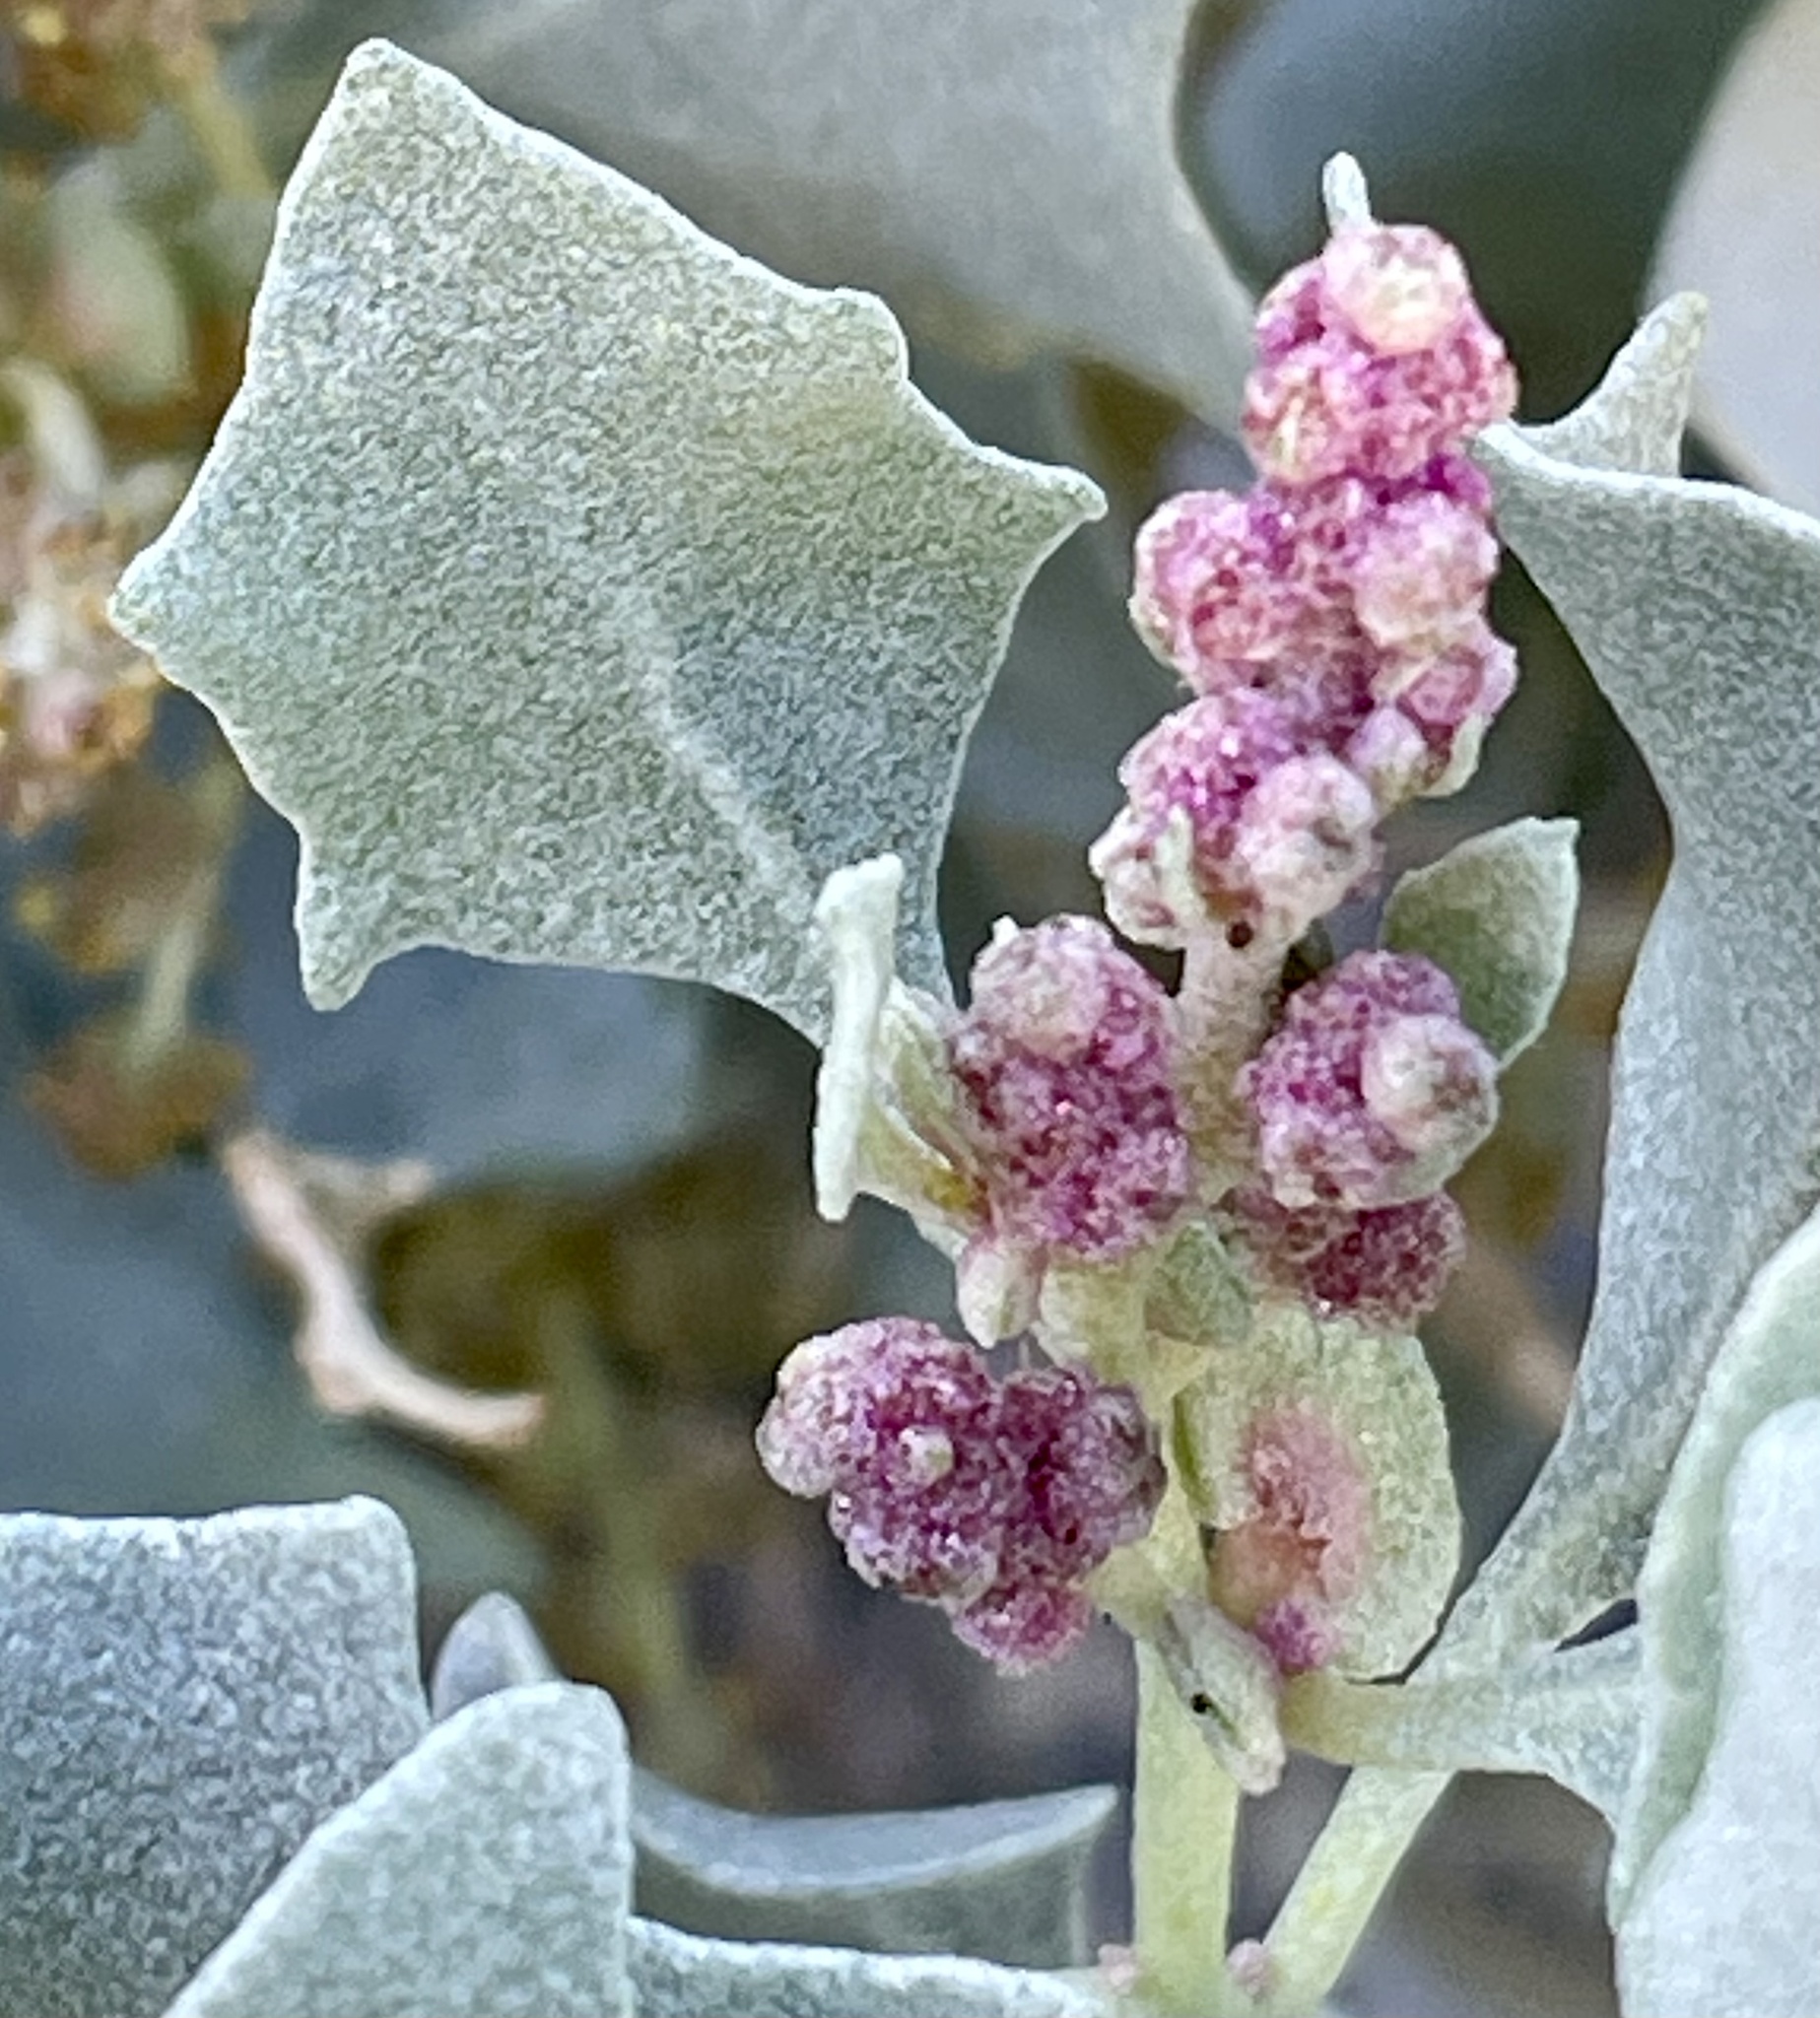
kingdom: Plantae
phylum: Tracheophyta
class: Magnoliopsida
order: Caryophyllales
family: Amaranthaceae
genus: Atriplex
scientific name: Atriplex hymenelytra
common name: Desert-holly
